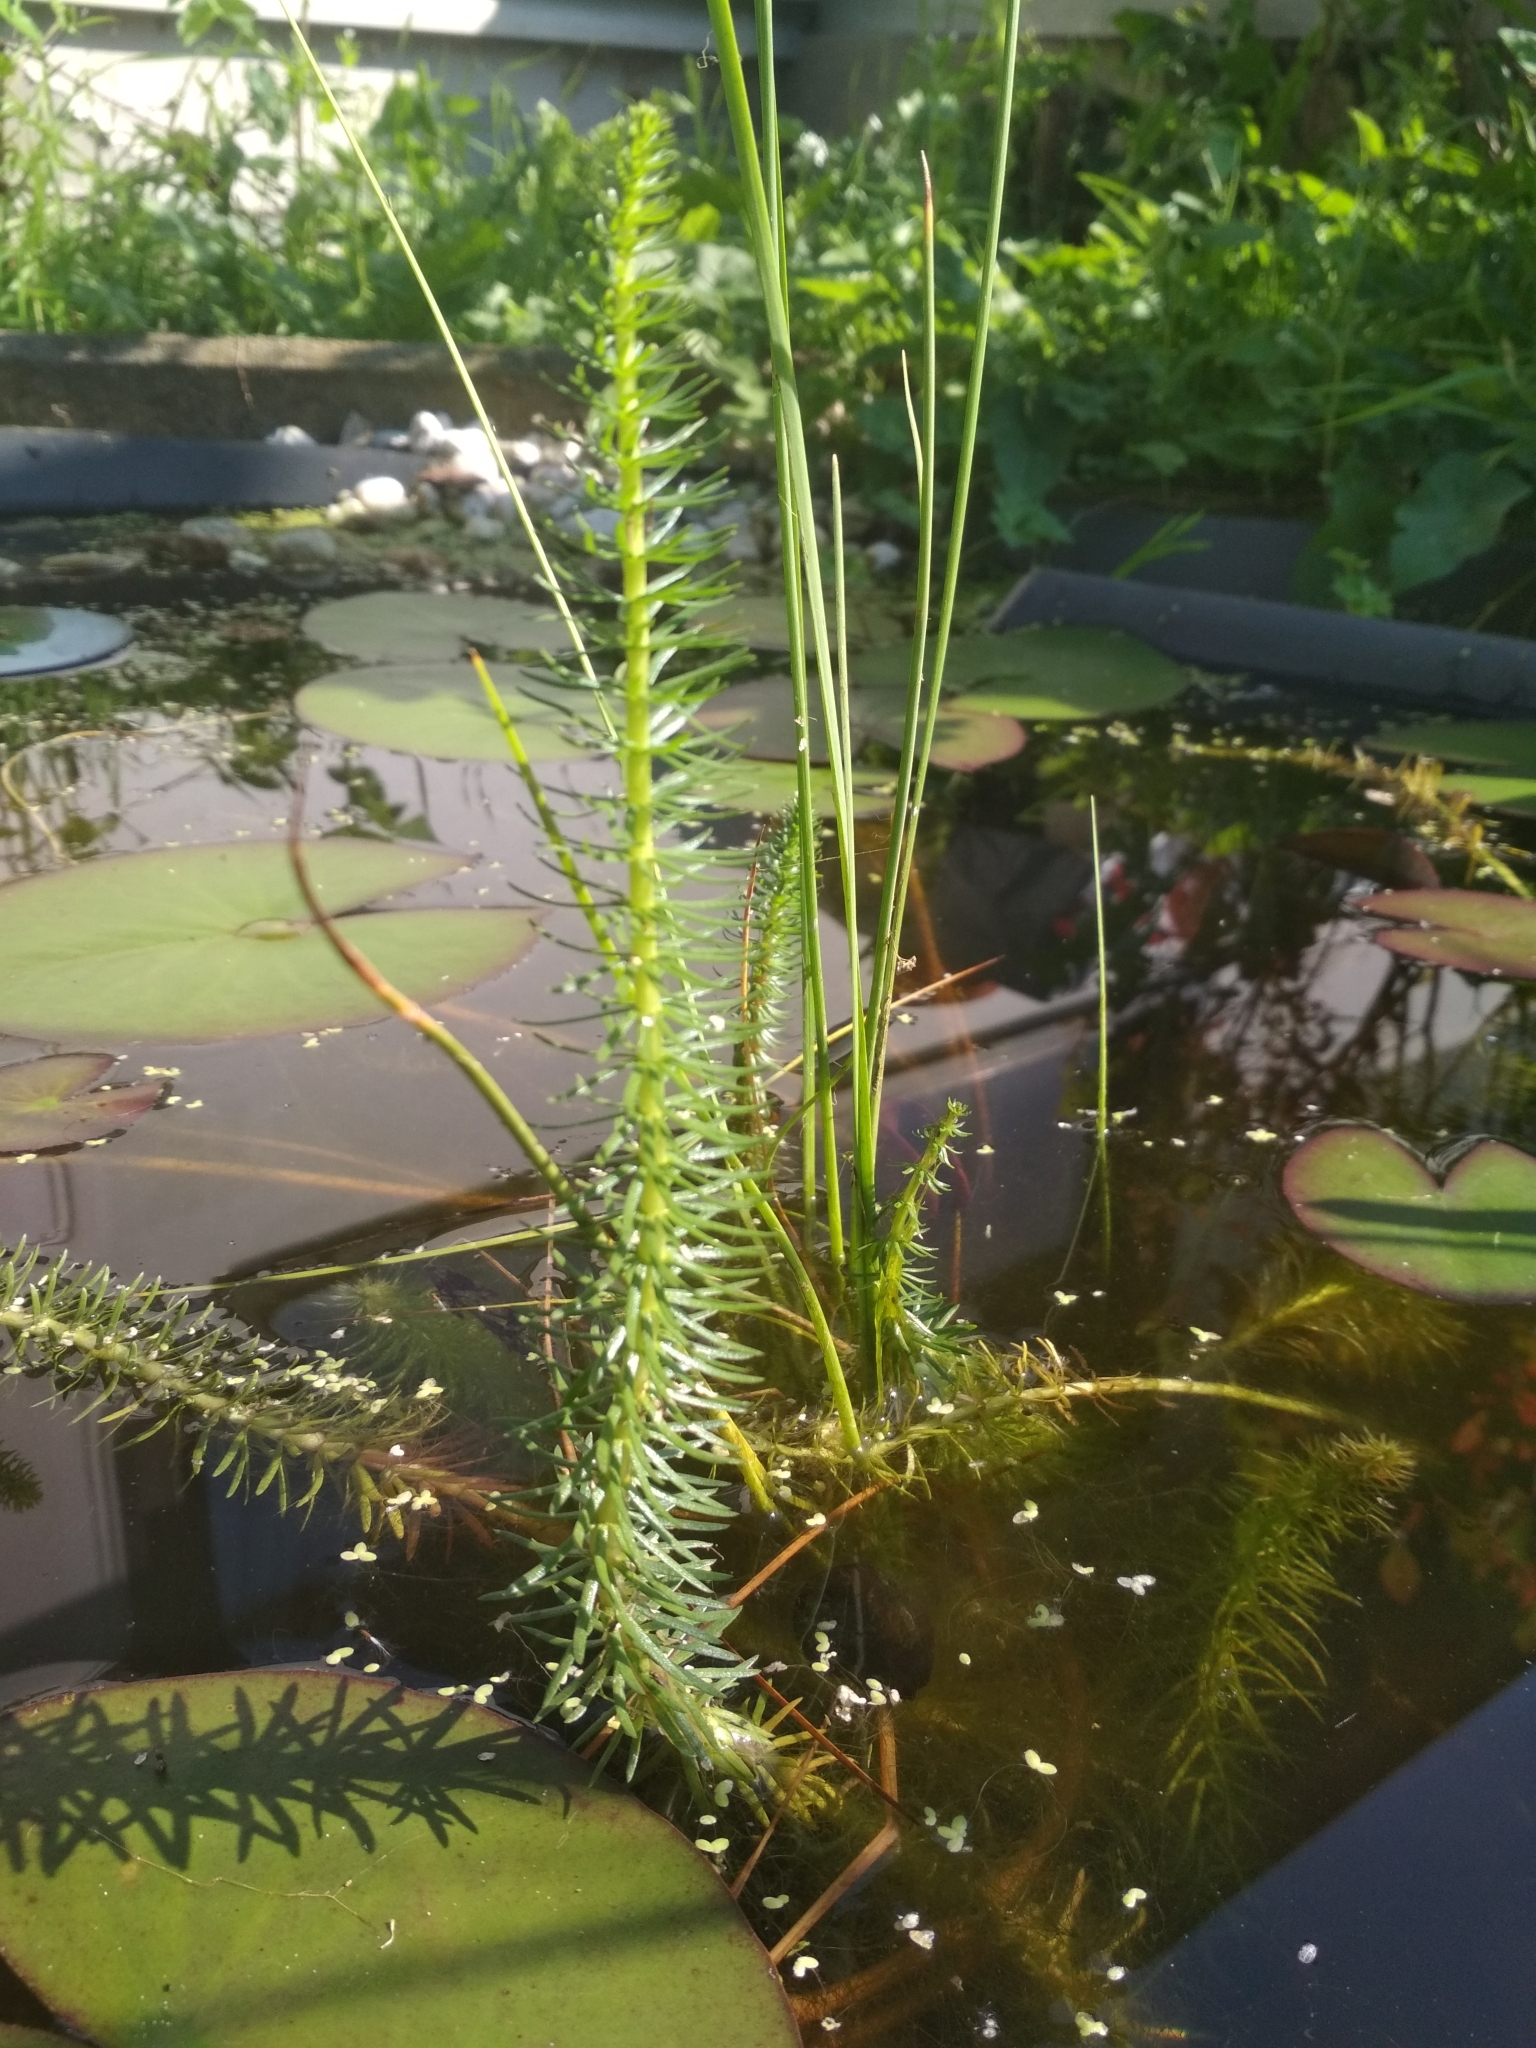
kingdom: Plantae
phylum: Tracheophyta
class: Magnoliopsida
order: Lamiales
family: Plantaginaceae
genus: Hippuris
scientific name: Hippuris vulgaris
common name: Mare's-tail
